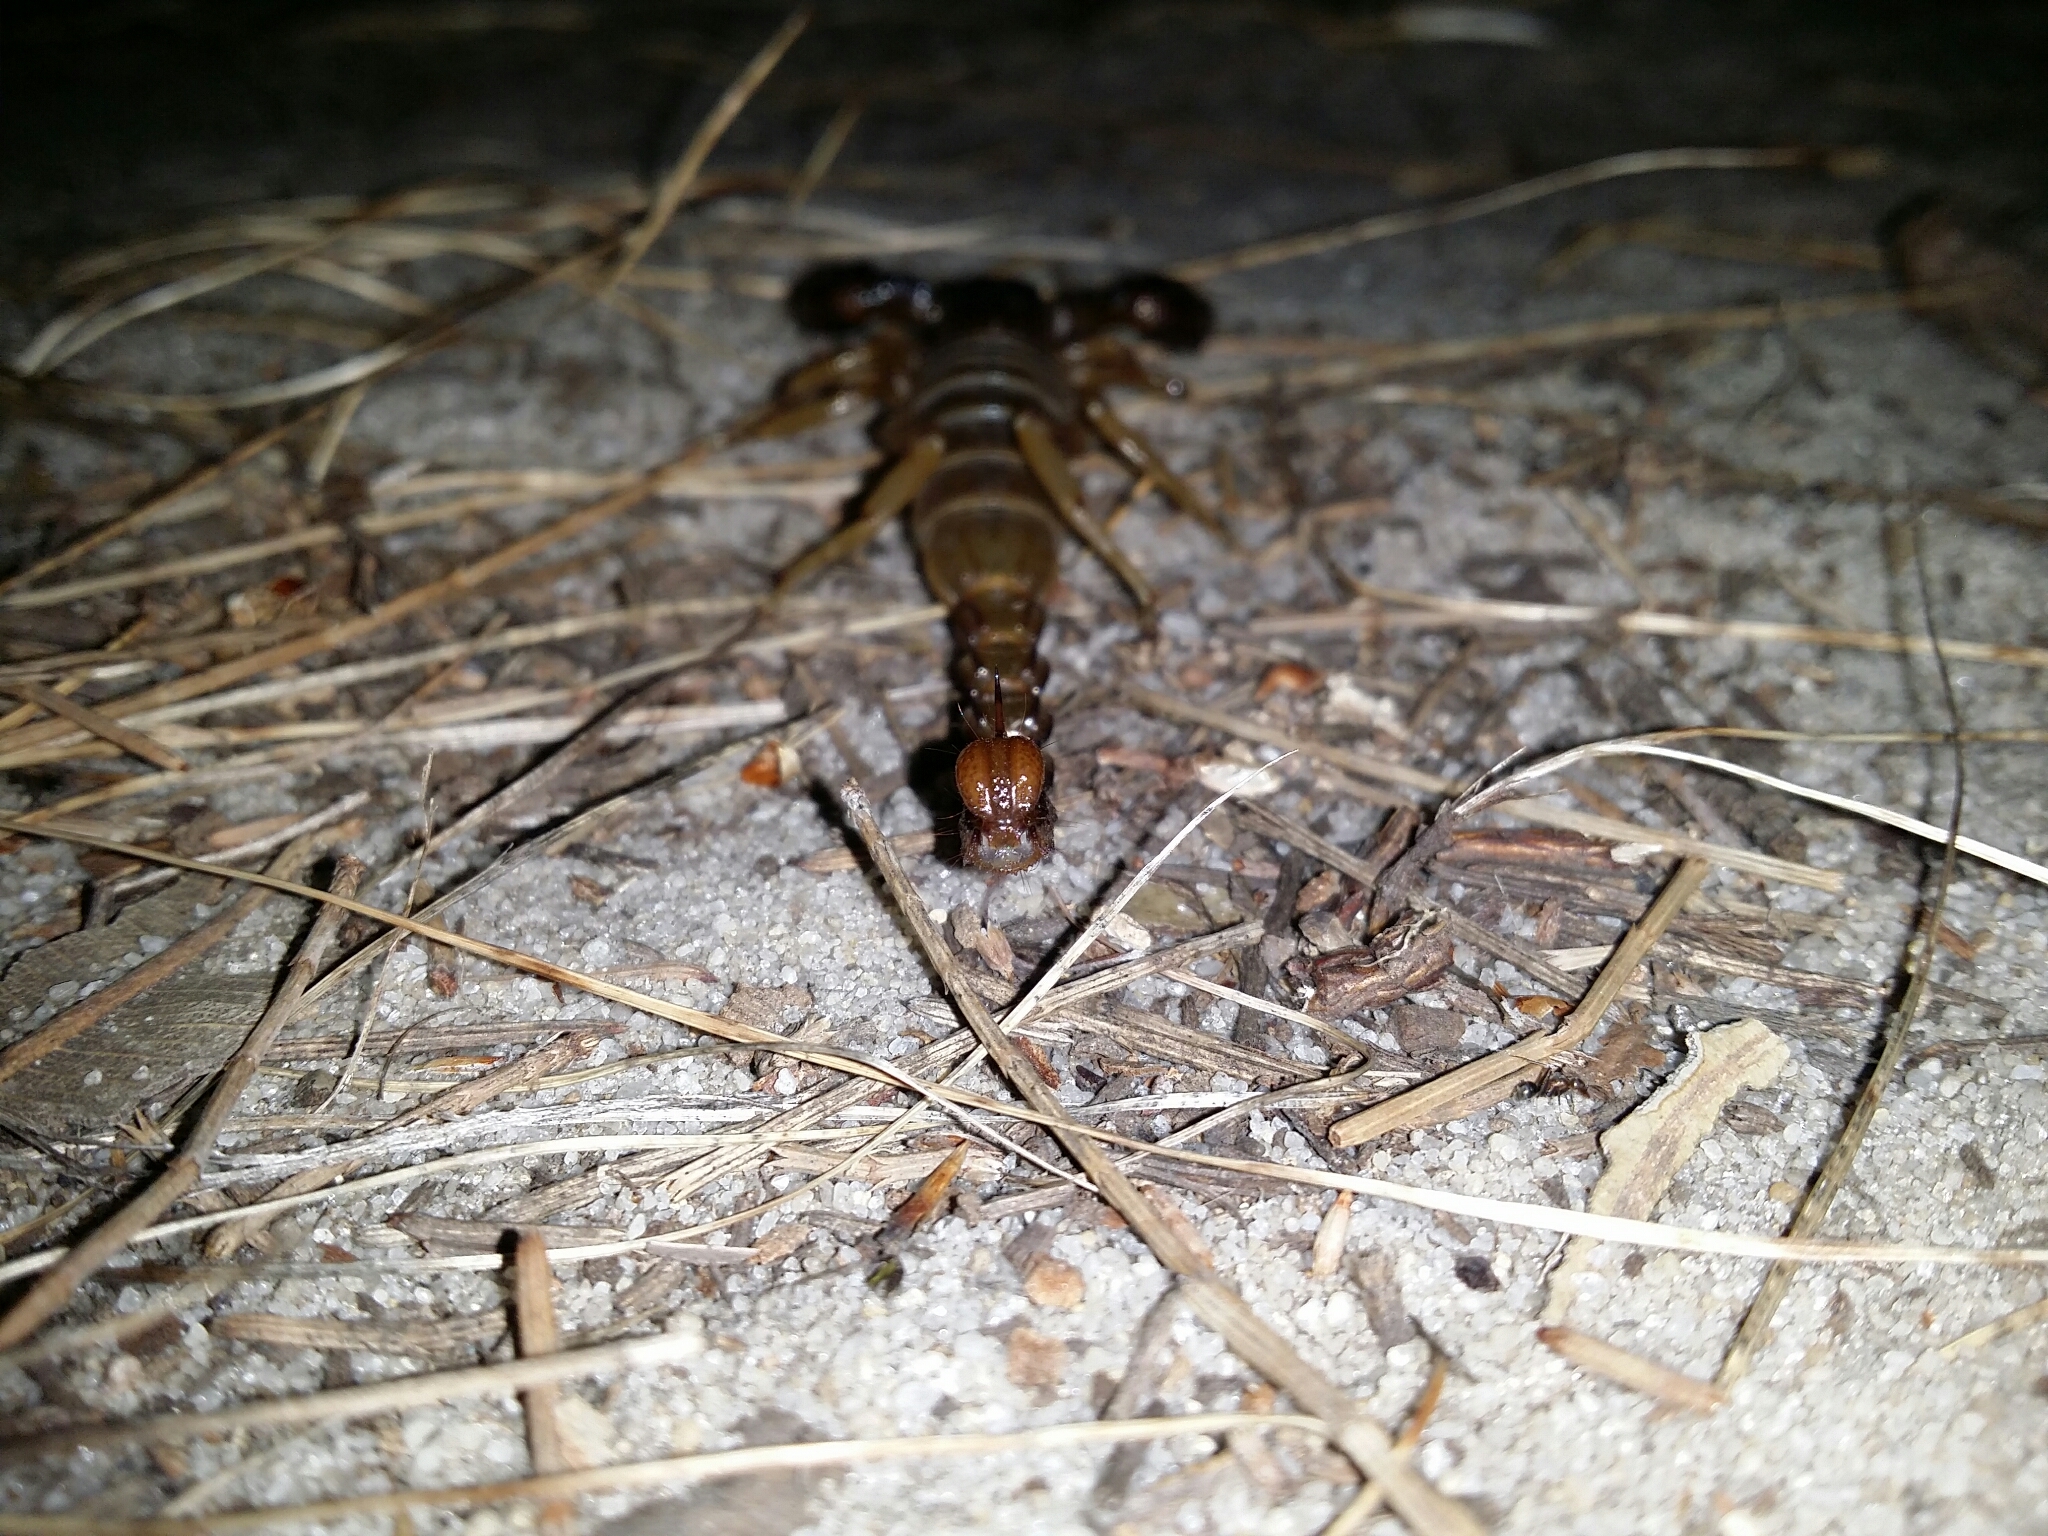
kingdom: Animalia
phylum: Arthropoda
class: Arachnida
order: Scorpiones
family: Scorpionidae
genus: Urodacus
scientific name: Urodacus novaehollandiae
